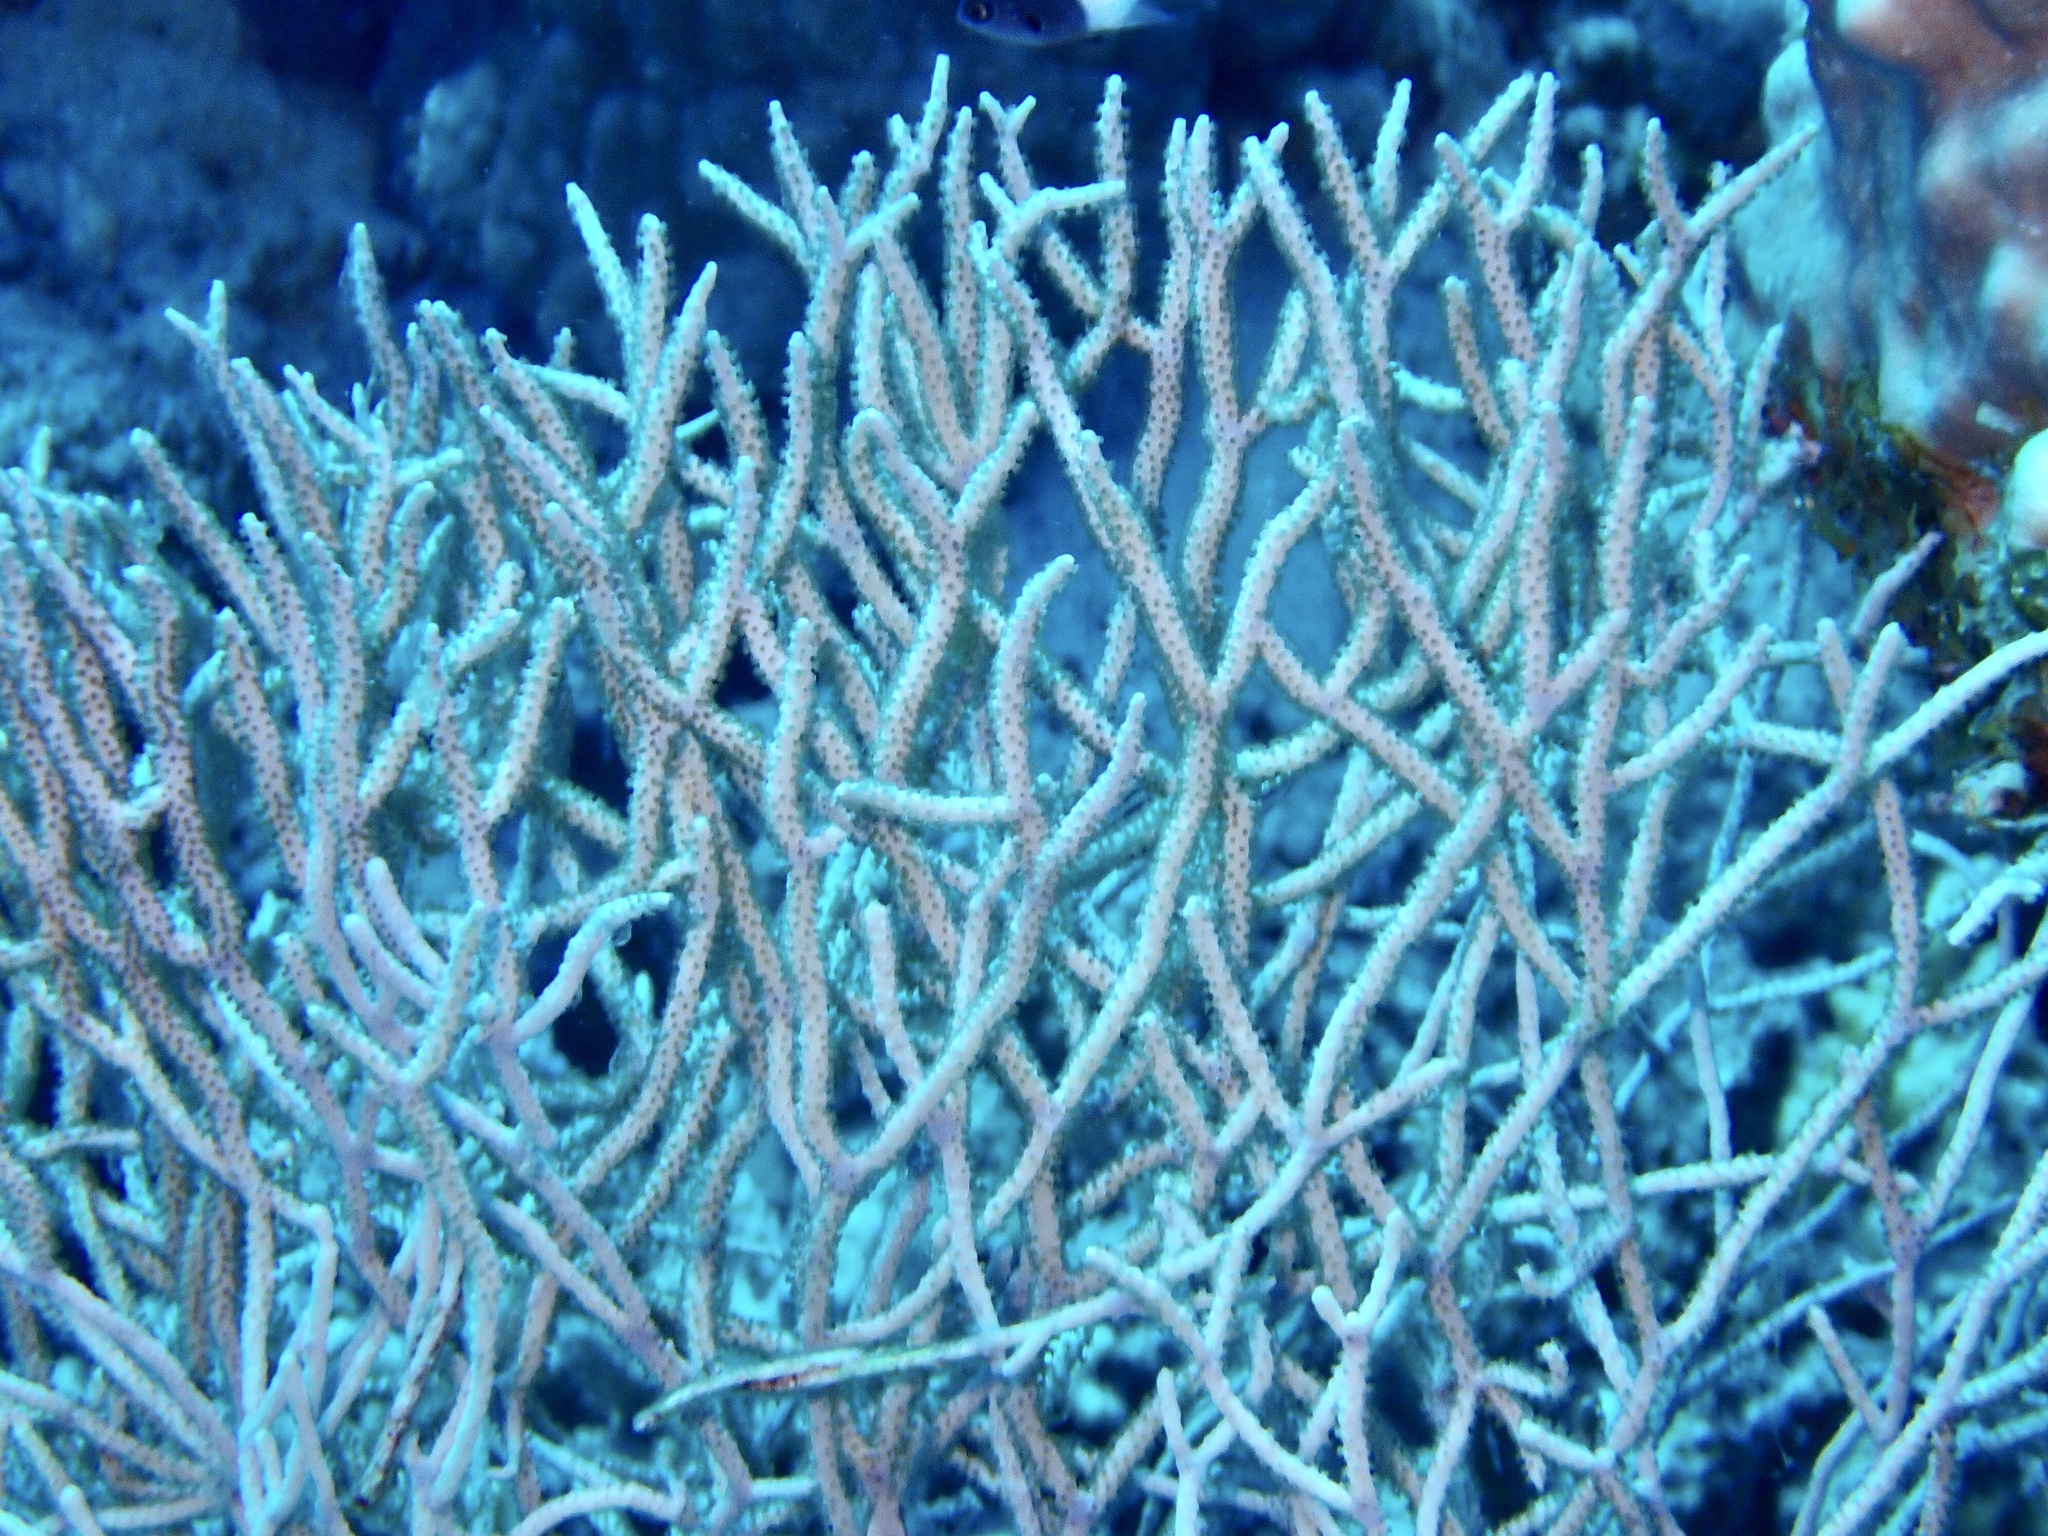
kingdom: Animalia
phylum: Cnidaria
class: Anthozoa
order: Malacalcyonacea
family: Melithaeidae
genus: Melithaea
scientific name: Melithaea rubrinodis
